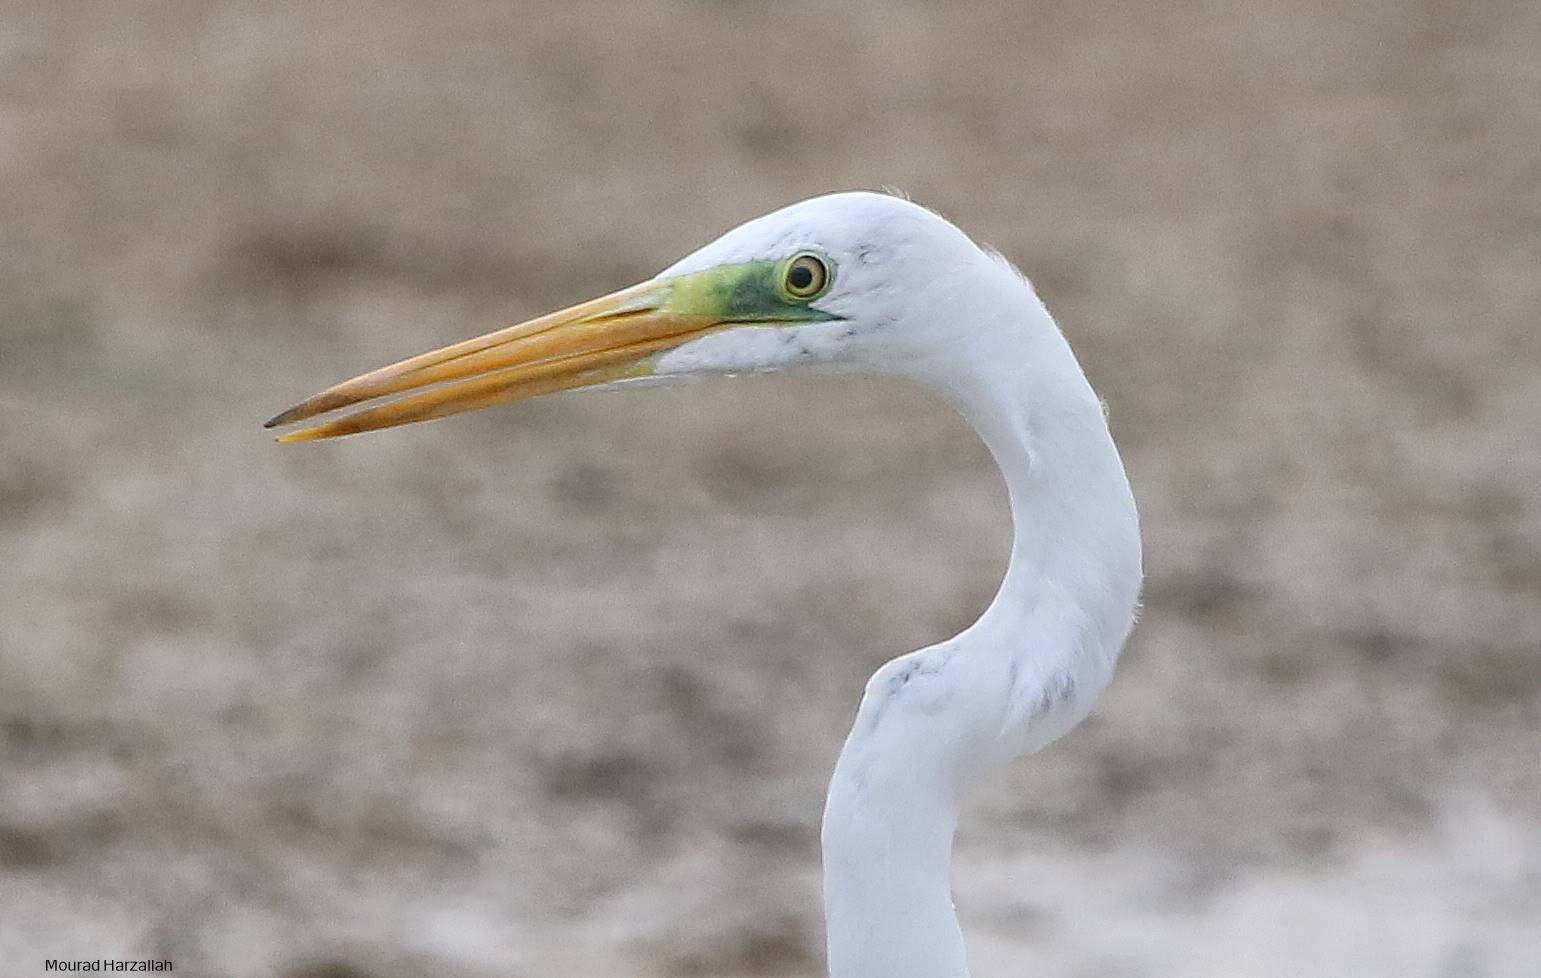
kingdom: Animalia
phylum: Chordata
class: Aves
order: Pelecaniformes
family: Ardeidae
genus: Ardea
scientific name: Ardea alba
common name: Great egret
